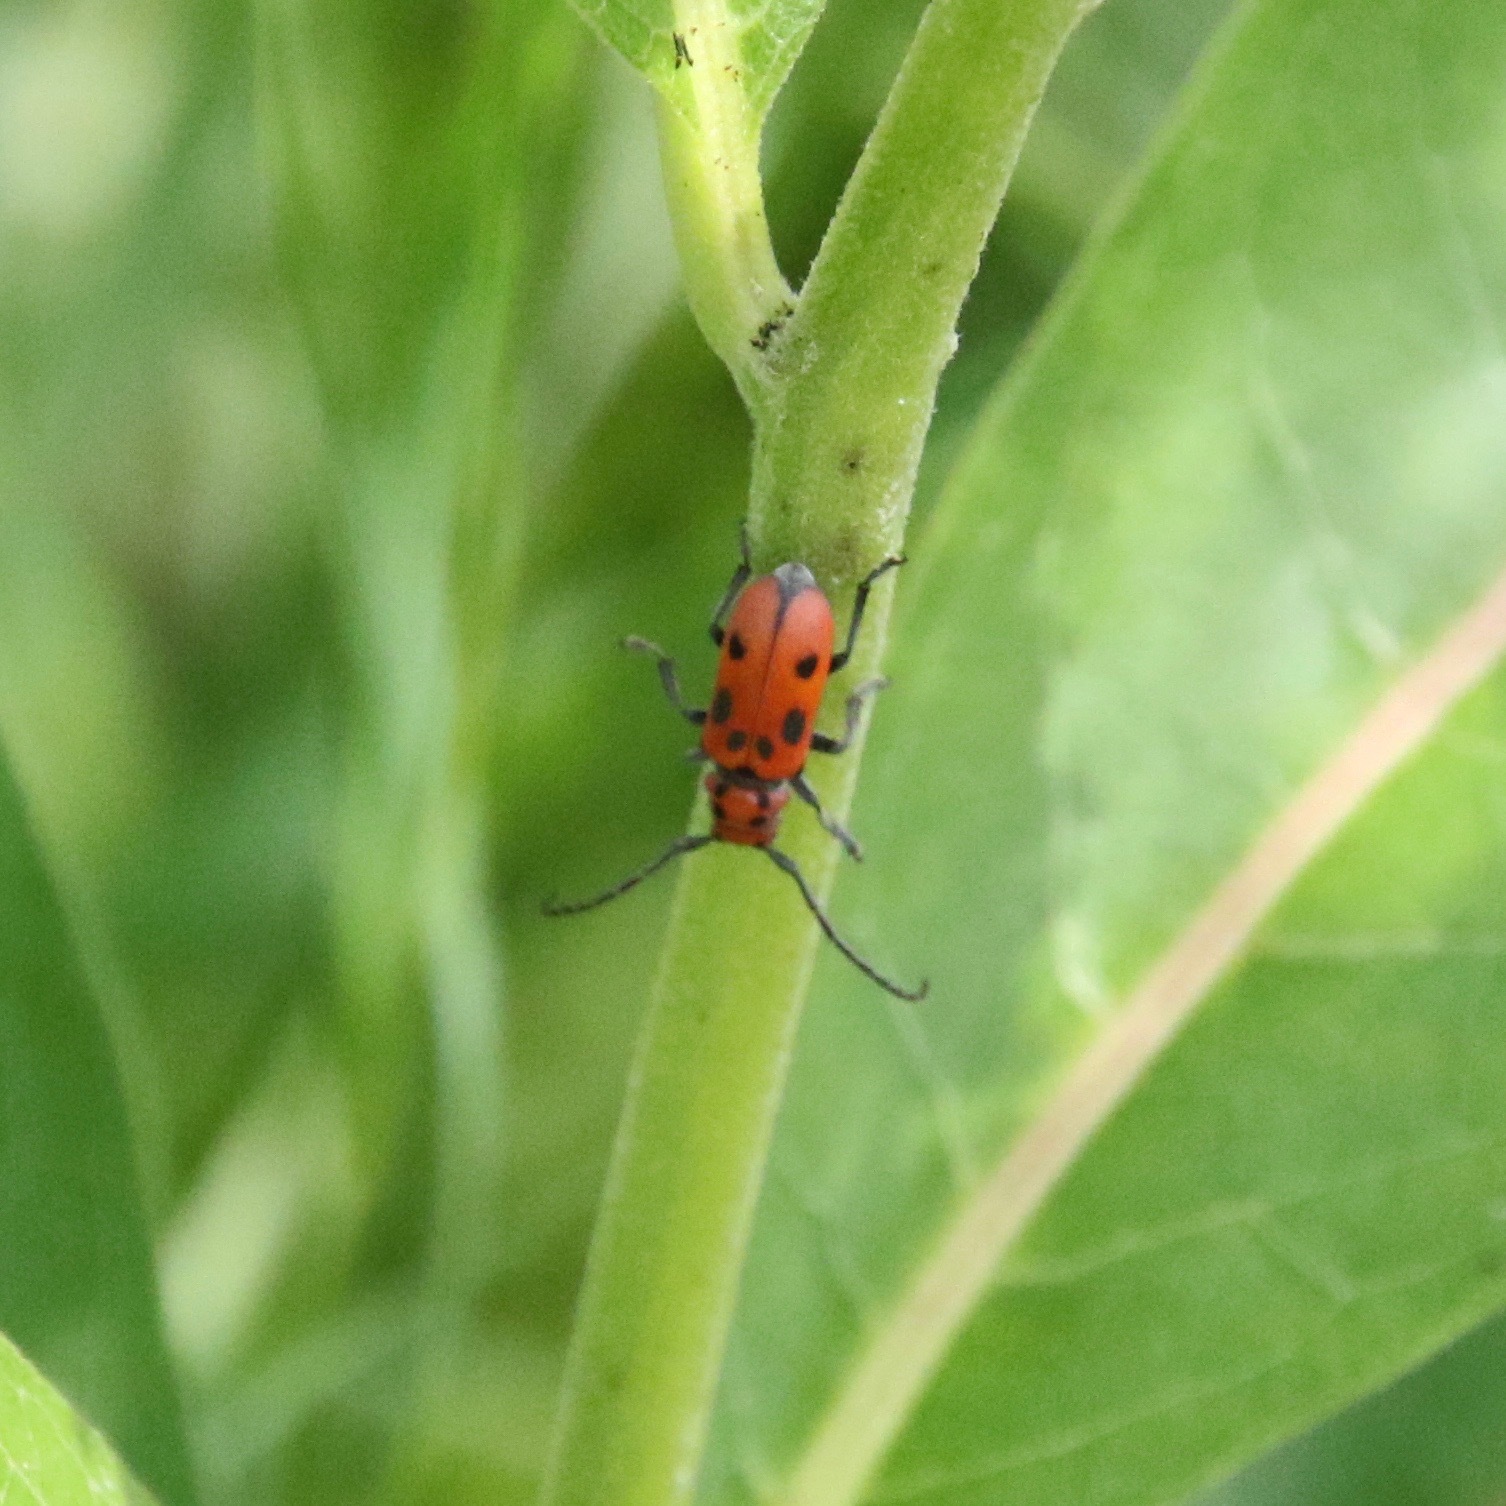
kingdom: Animalia
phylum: Arthropoda
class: Insecta
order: Coleoptera
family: Cerambycidae
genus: Tetraopes
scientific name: Tetraopes tetrophthalmus
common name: Red milkweed beetle
